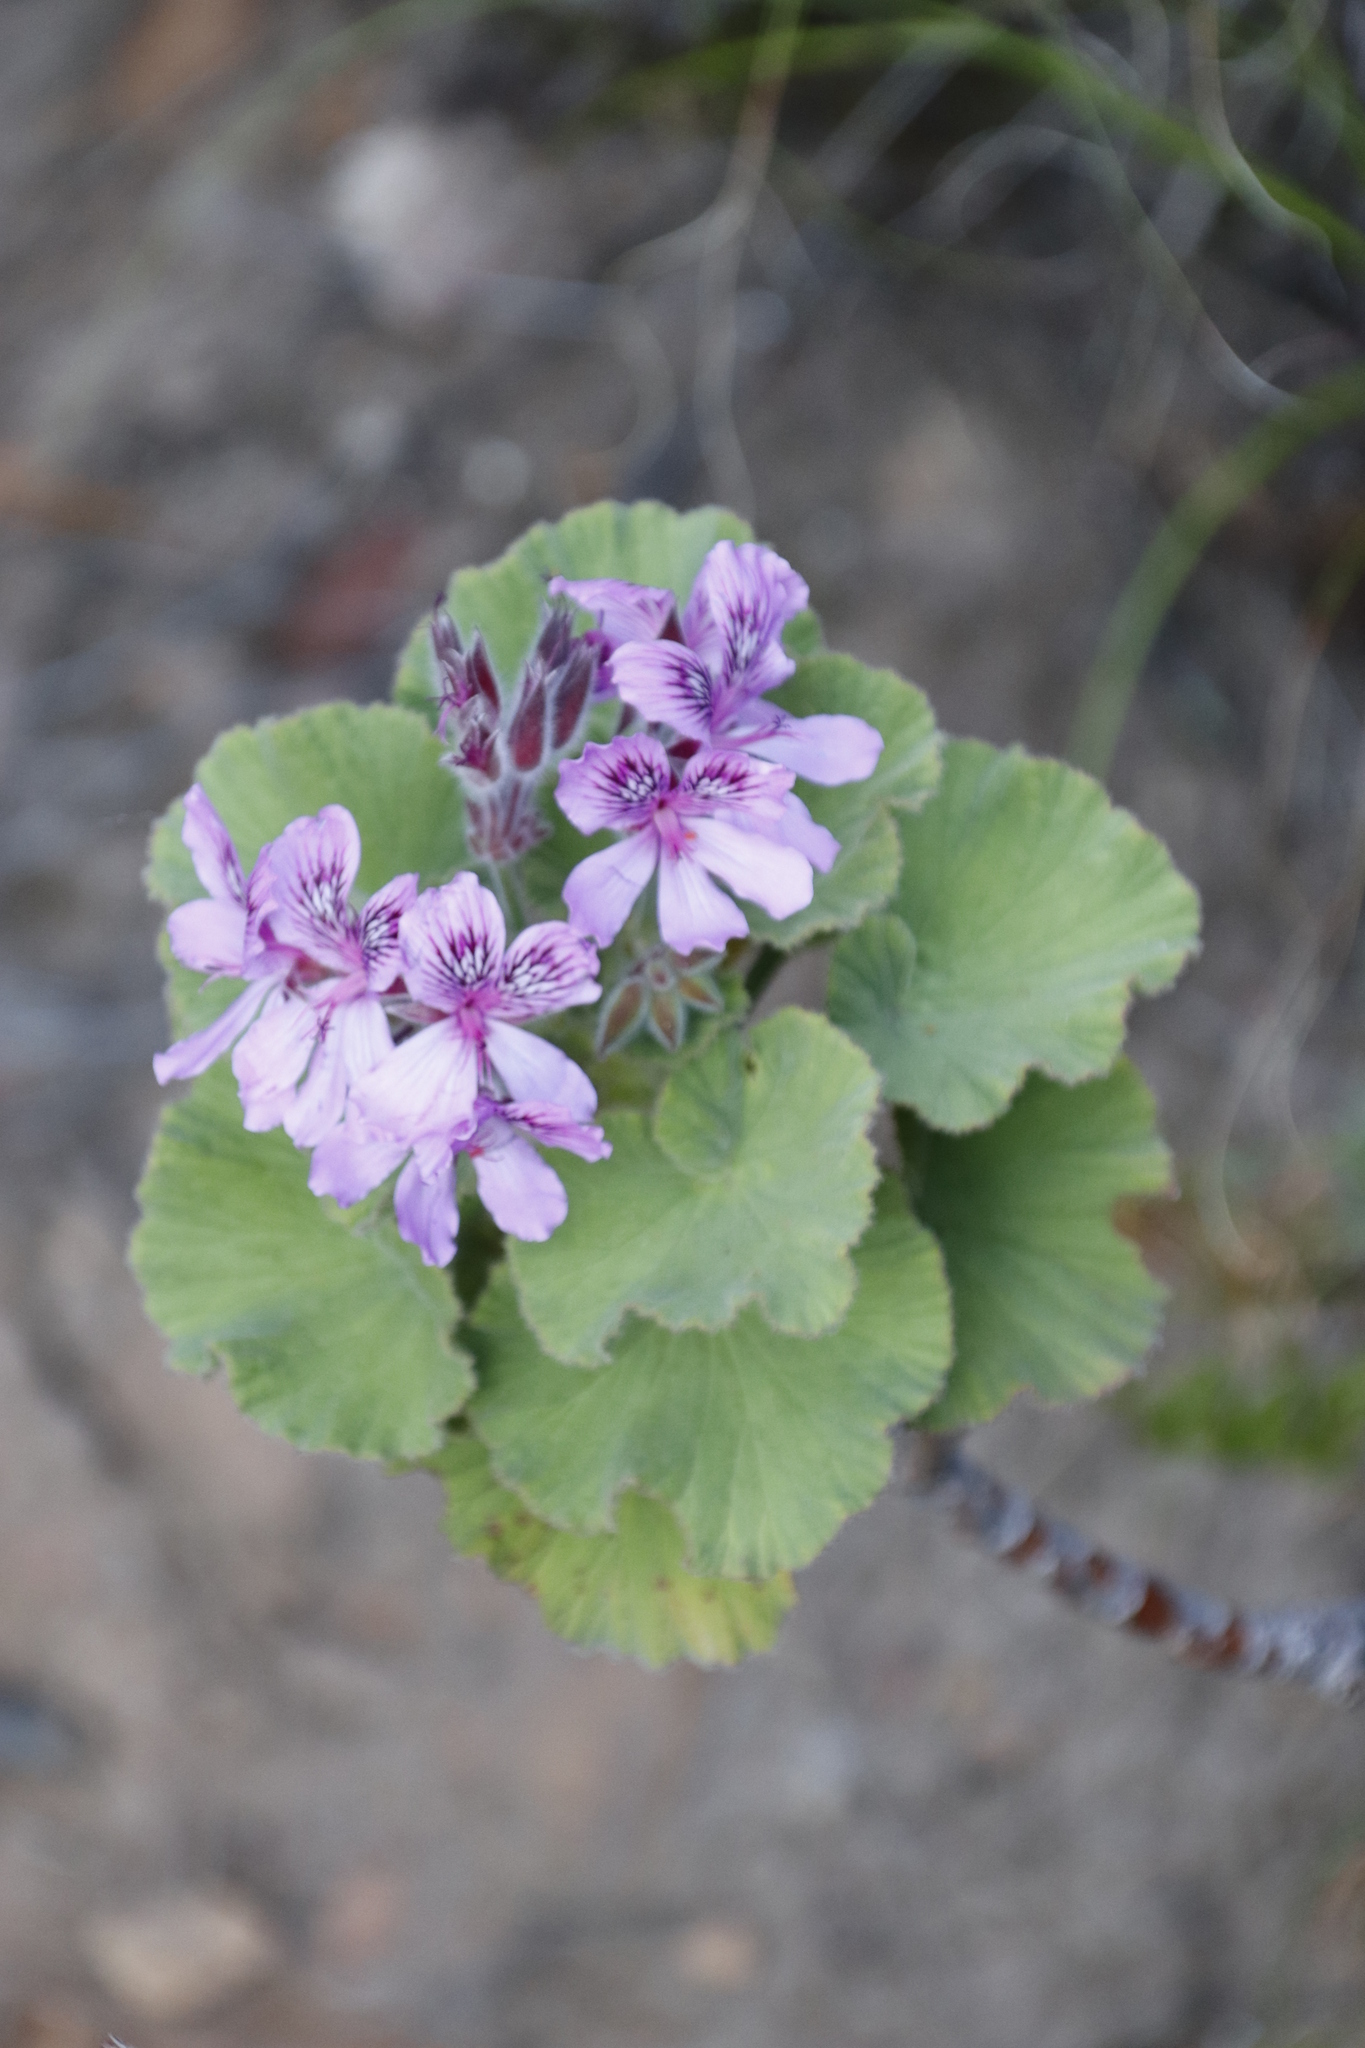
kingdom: Plantae
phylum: Tracheophyta
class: Magnoliopsida
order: Geraniales
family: Geraniaceae
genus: Pelargonium
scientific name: Pelargonium cucullatum
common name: Tree pelargonium
